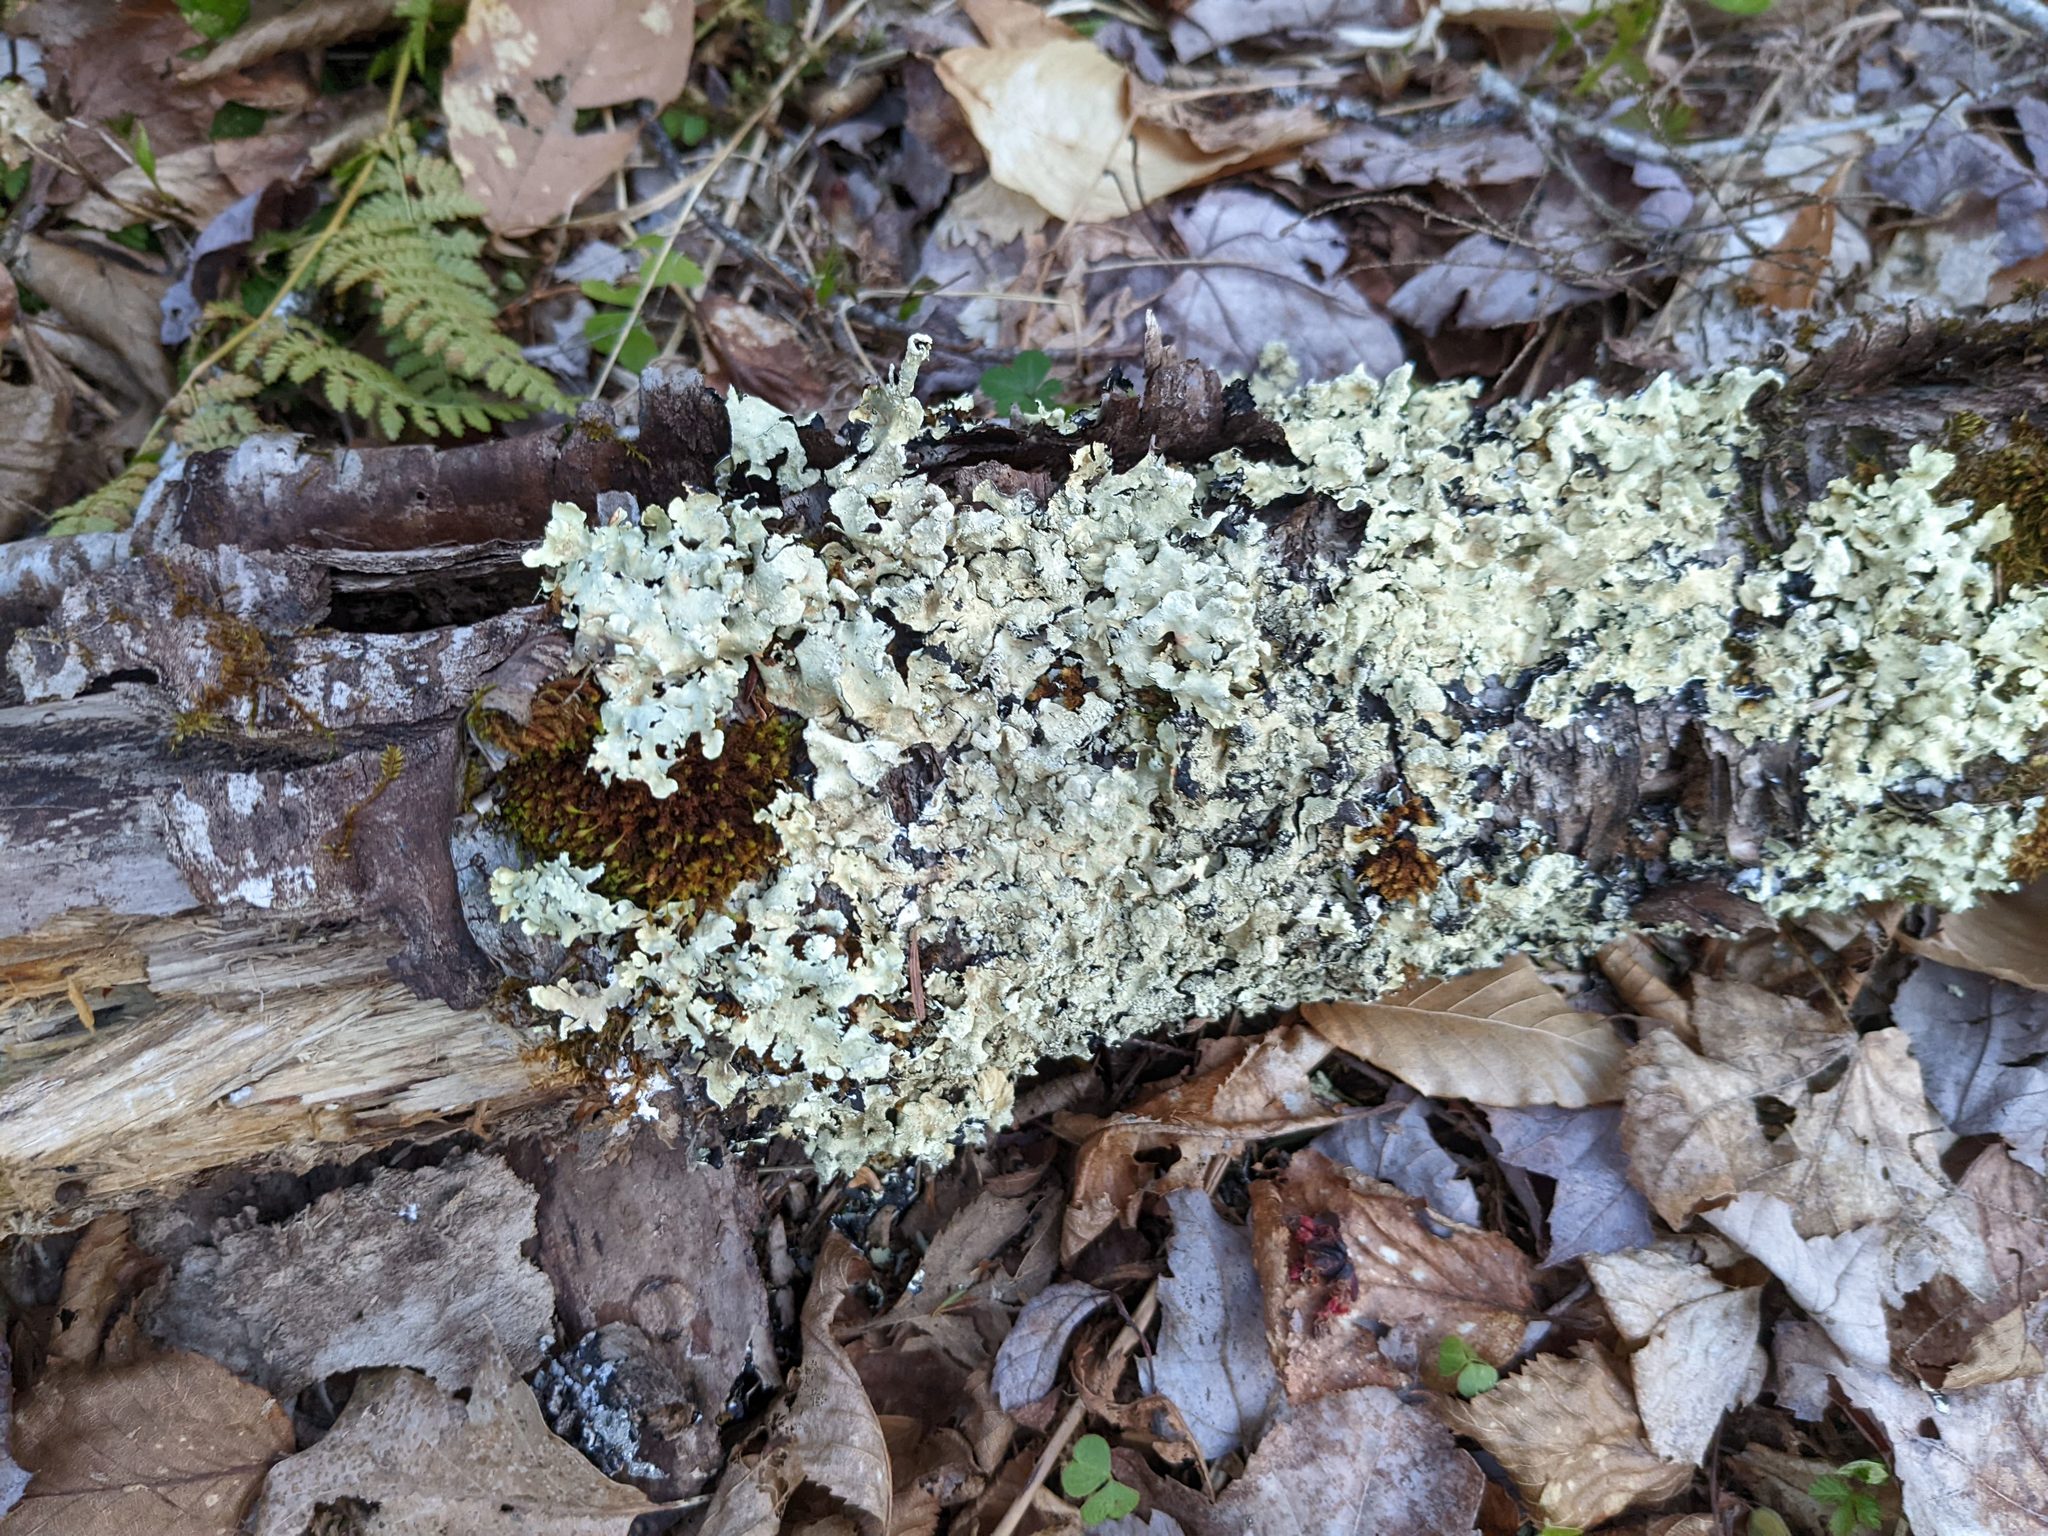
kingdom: Plantae
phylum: Bryophyta
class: Bryopsida
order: Orthotrichales
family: Orthotrichaceae
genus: Ulota
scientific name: Ulota crispa
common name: Crisped pincushion moss
